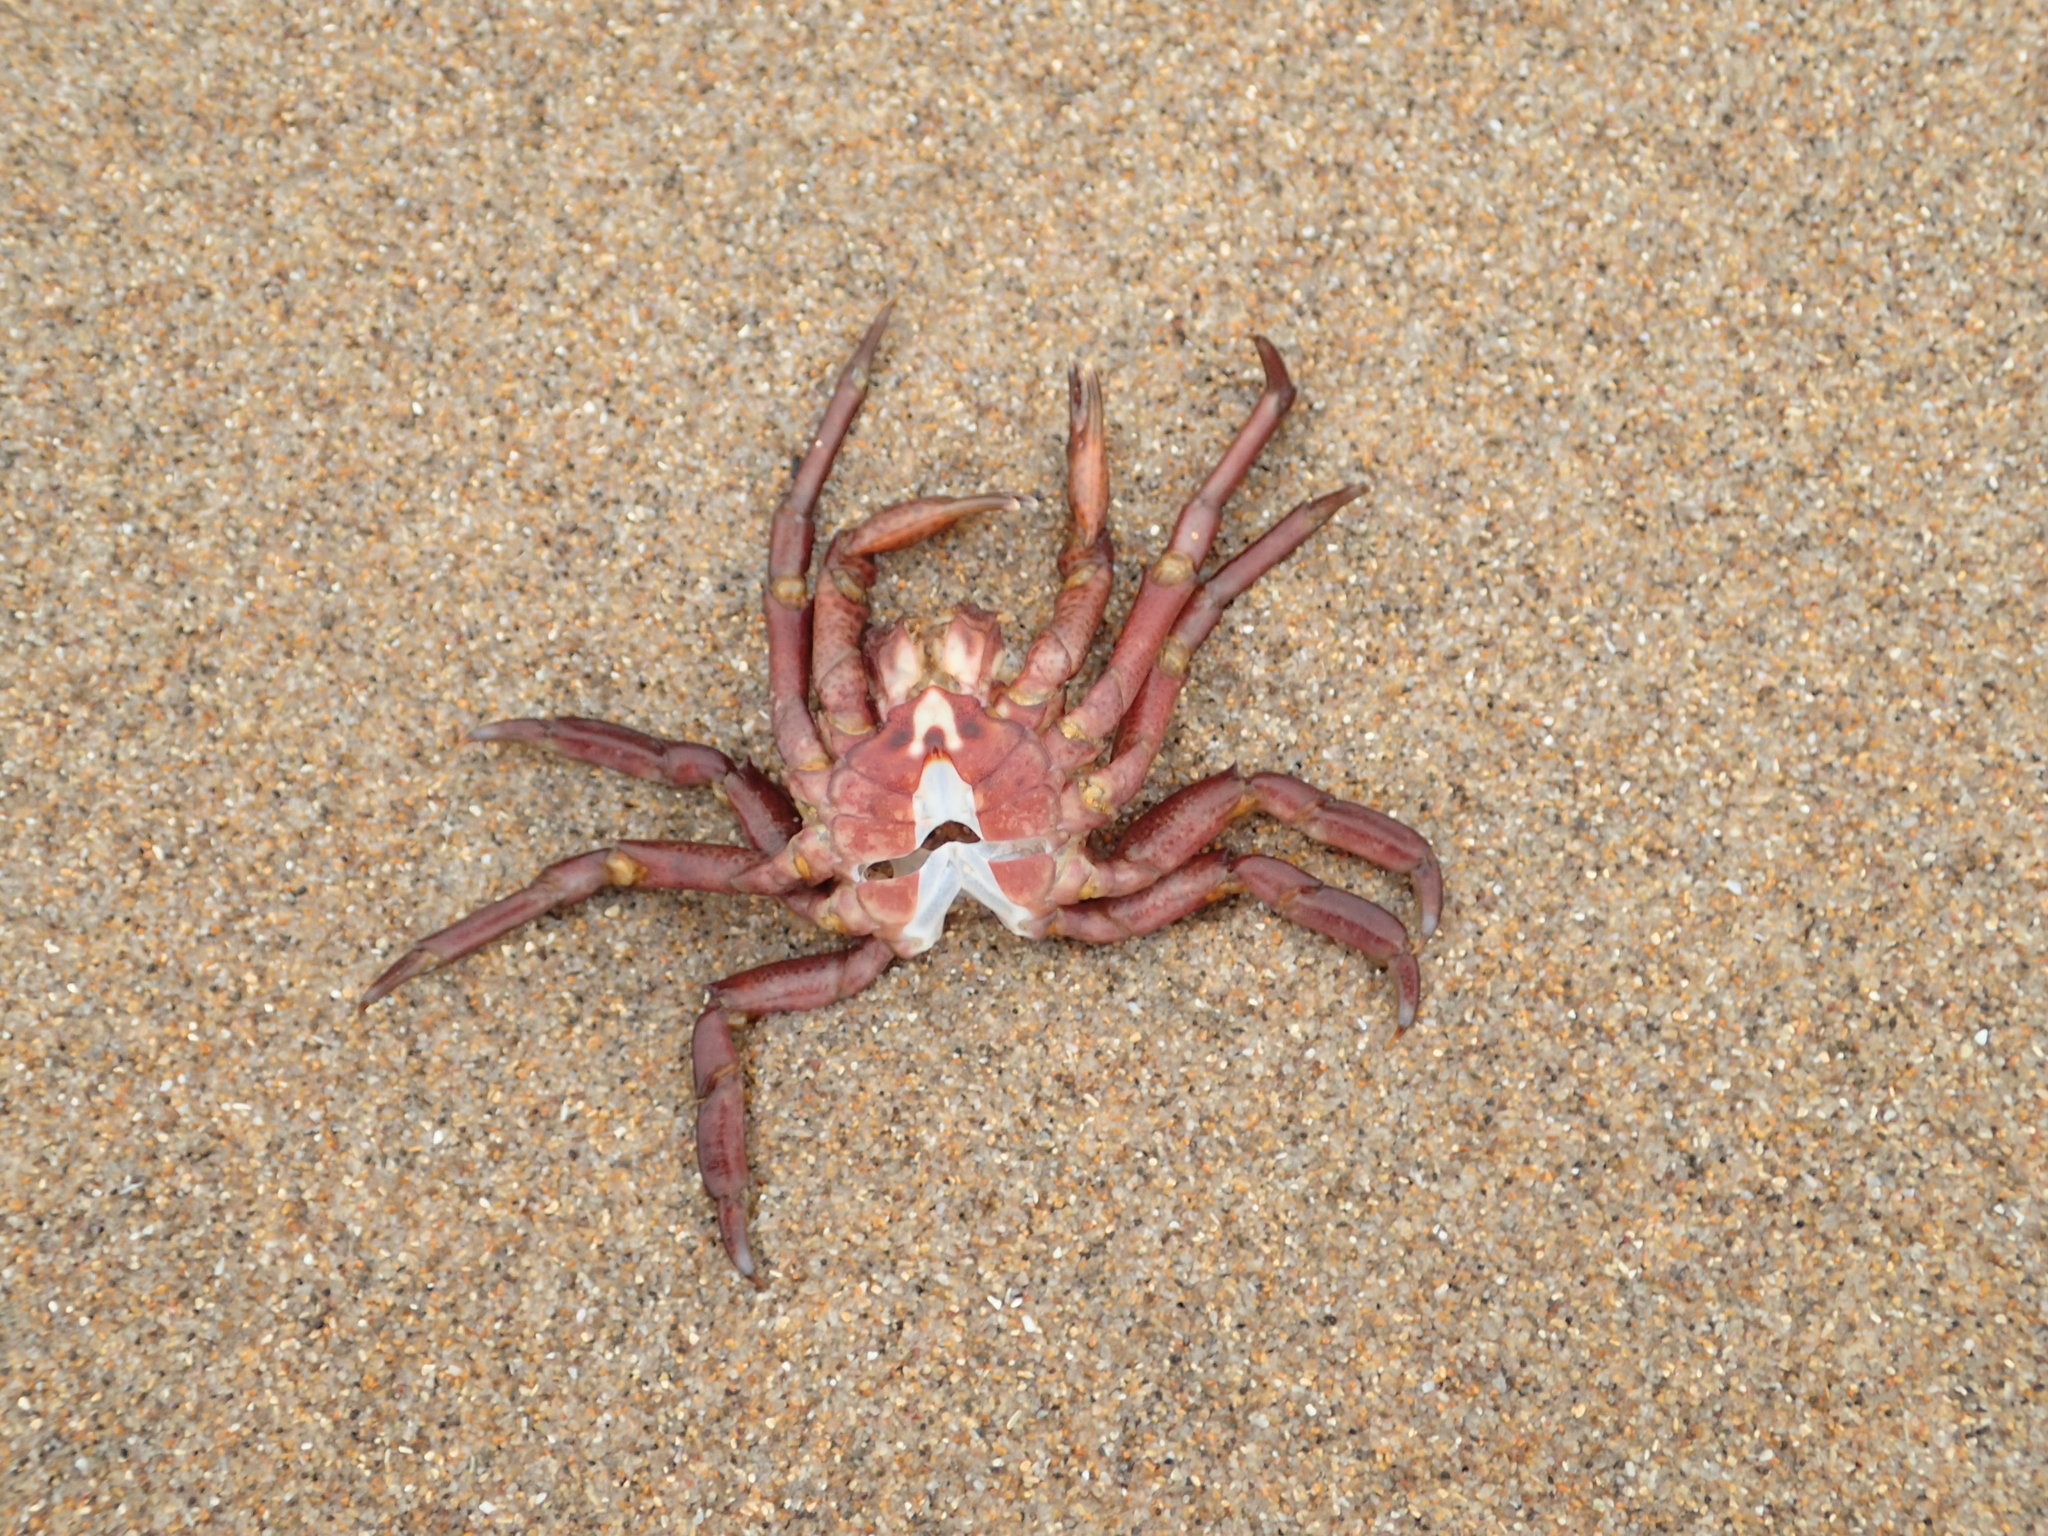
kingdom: Animalia
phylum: Arthropoda
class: Malacostraca
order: Decapoda
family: Epialtidae
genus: Pugettia
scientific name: Pugettia producta
